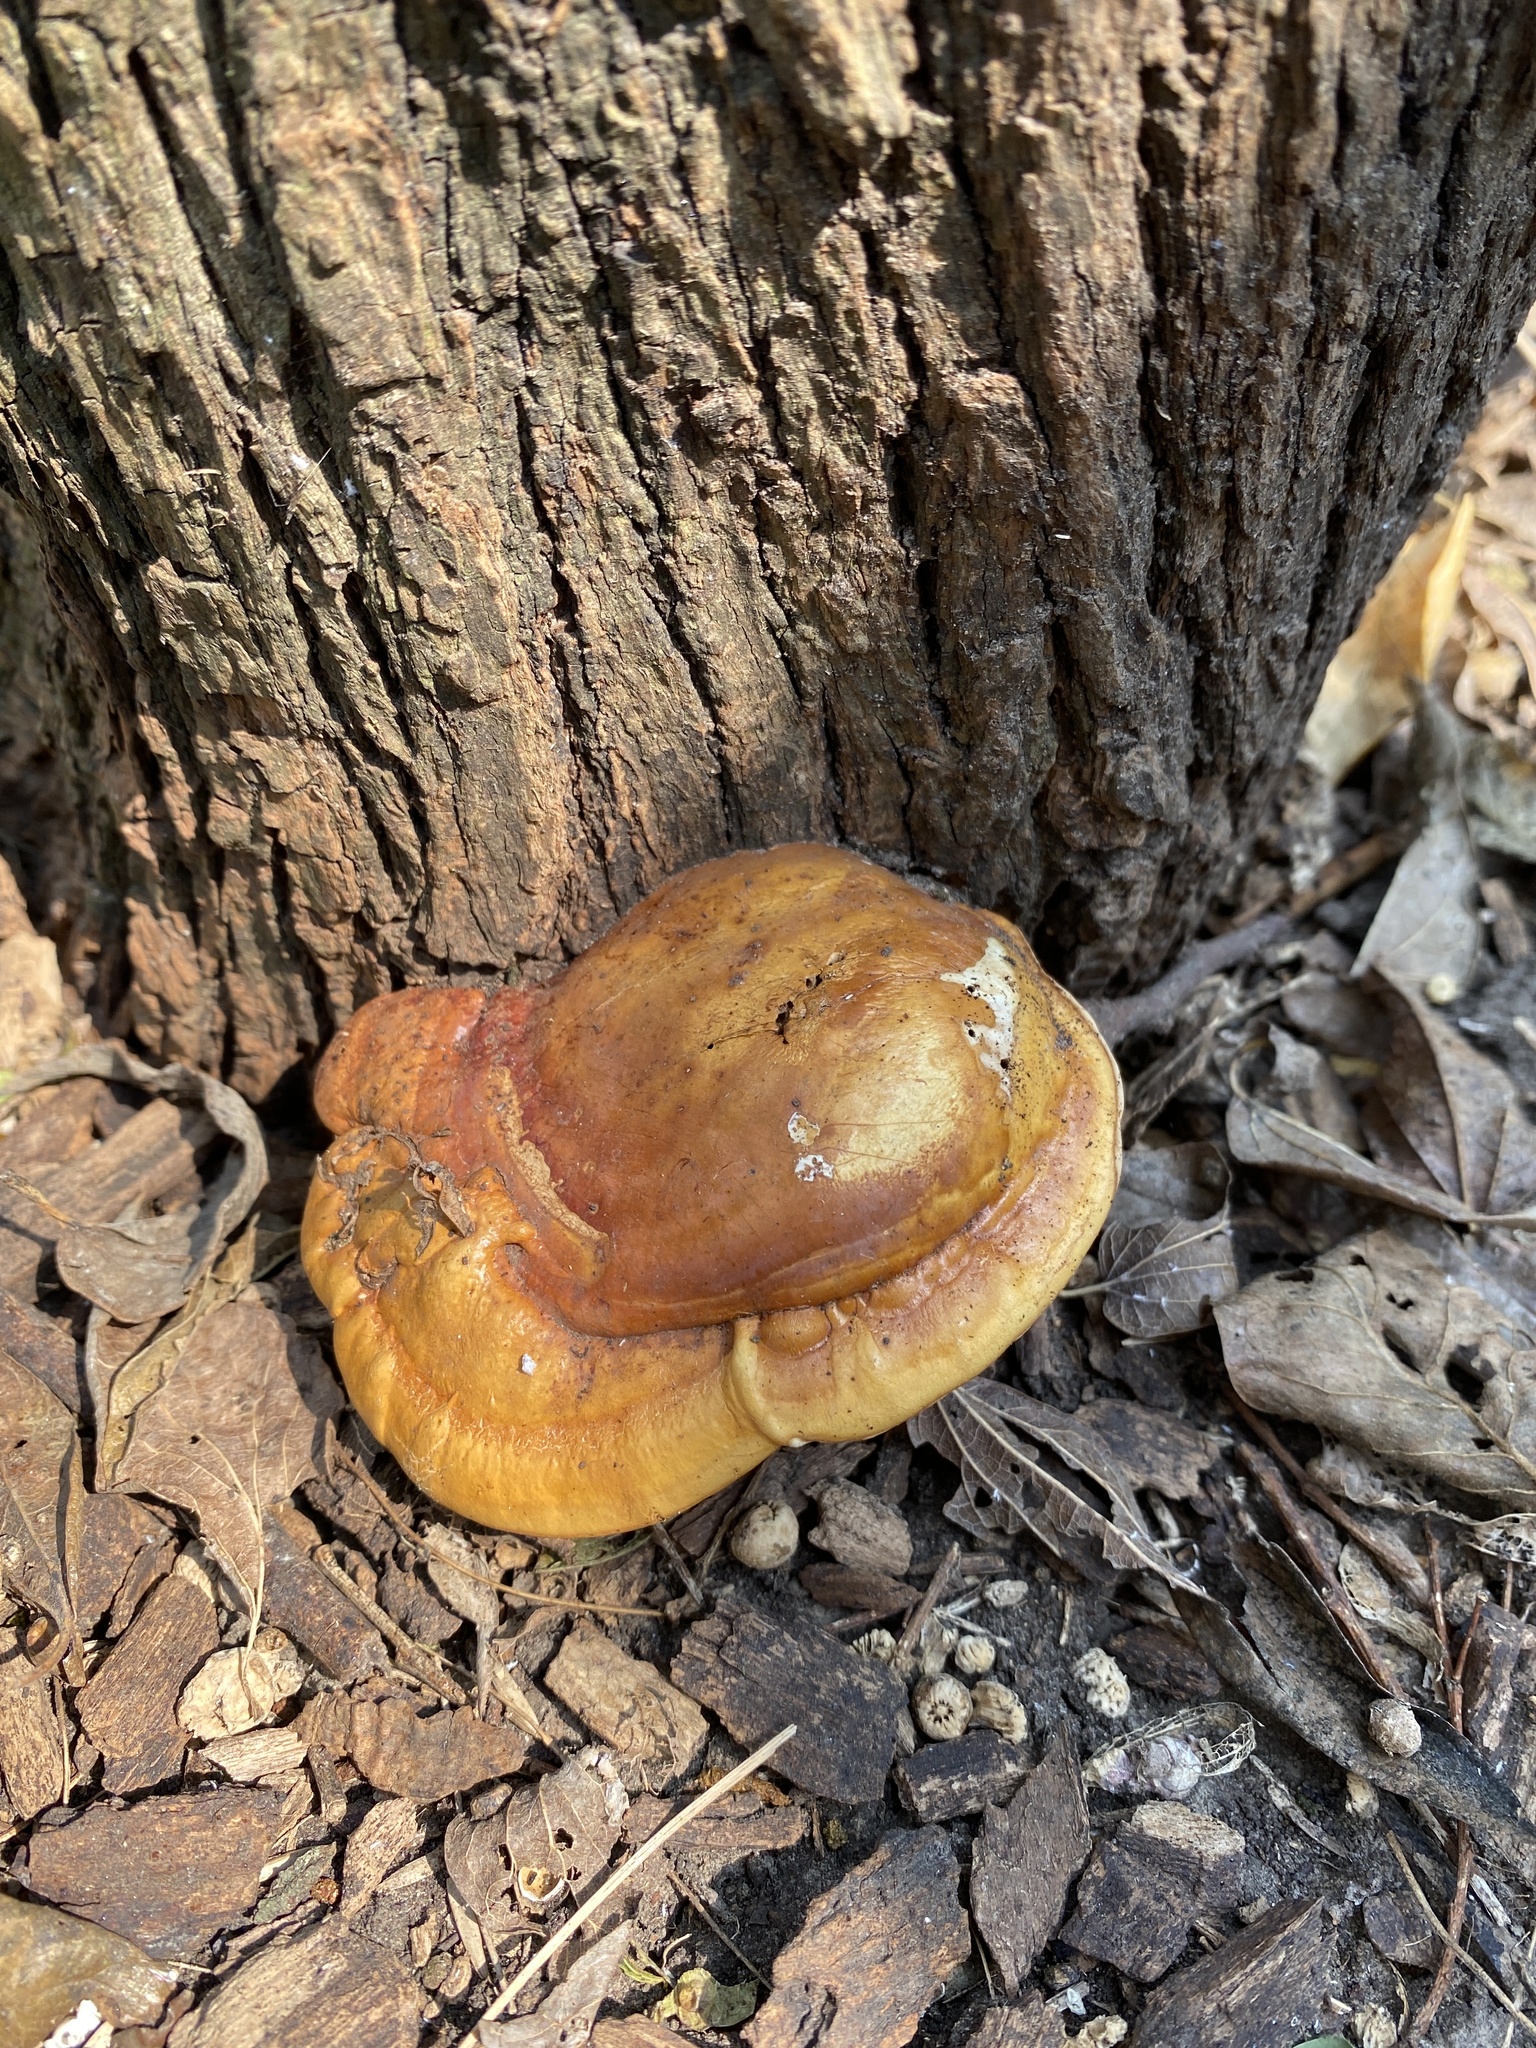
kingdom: Fungi
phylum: Basidiomycota
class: Agaricomycetes
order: Polyporales
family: Polyporaceae
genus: Ganoderma
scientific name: Ganoderma curtisii
